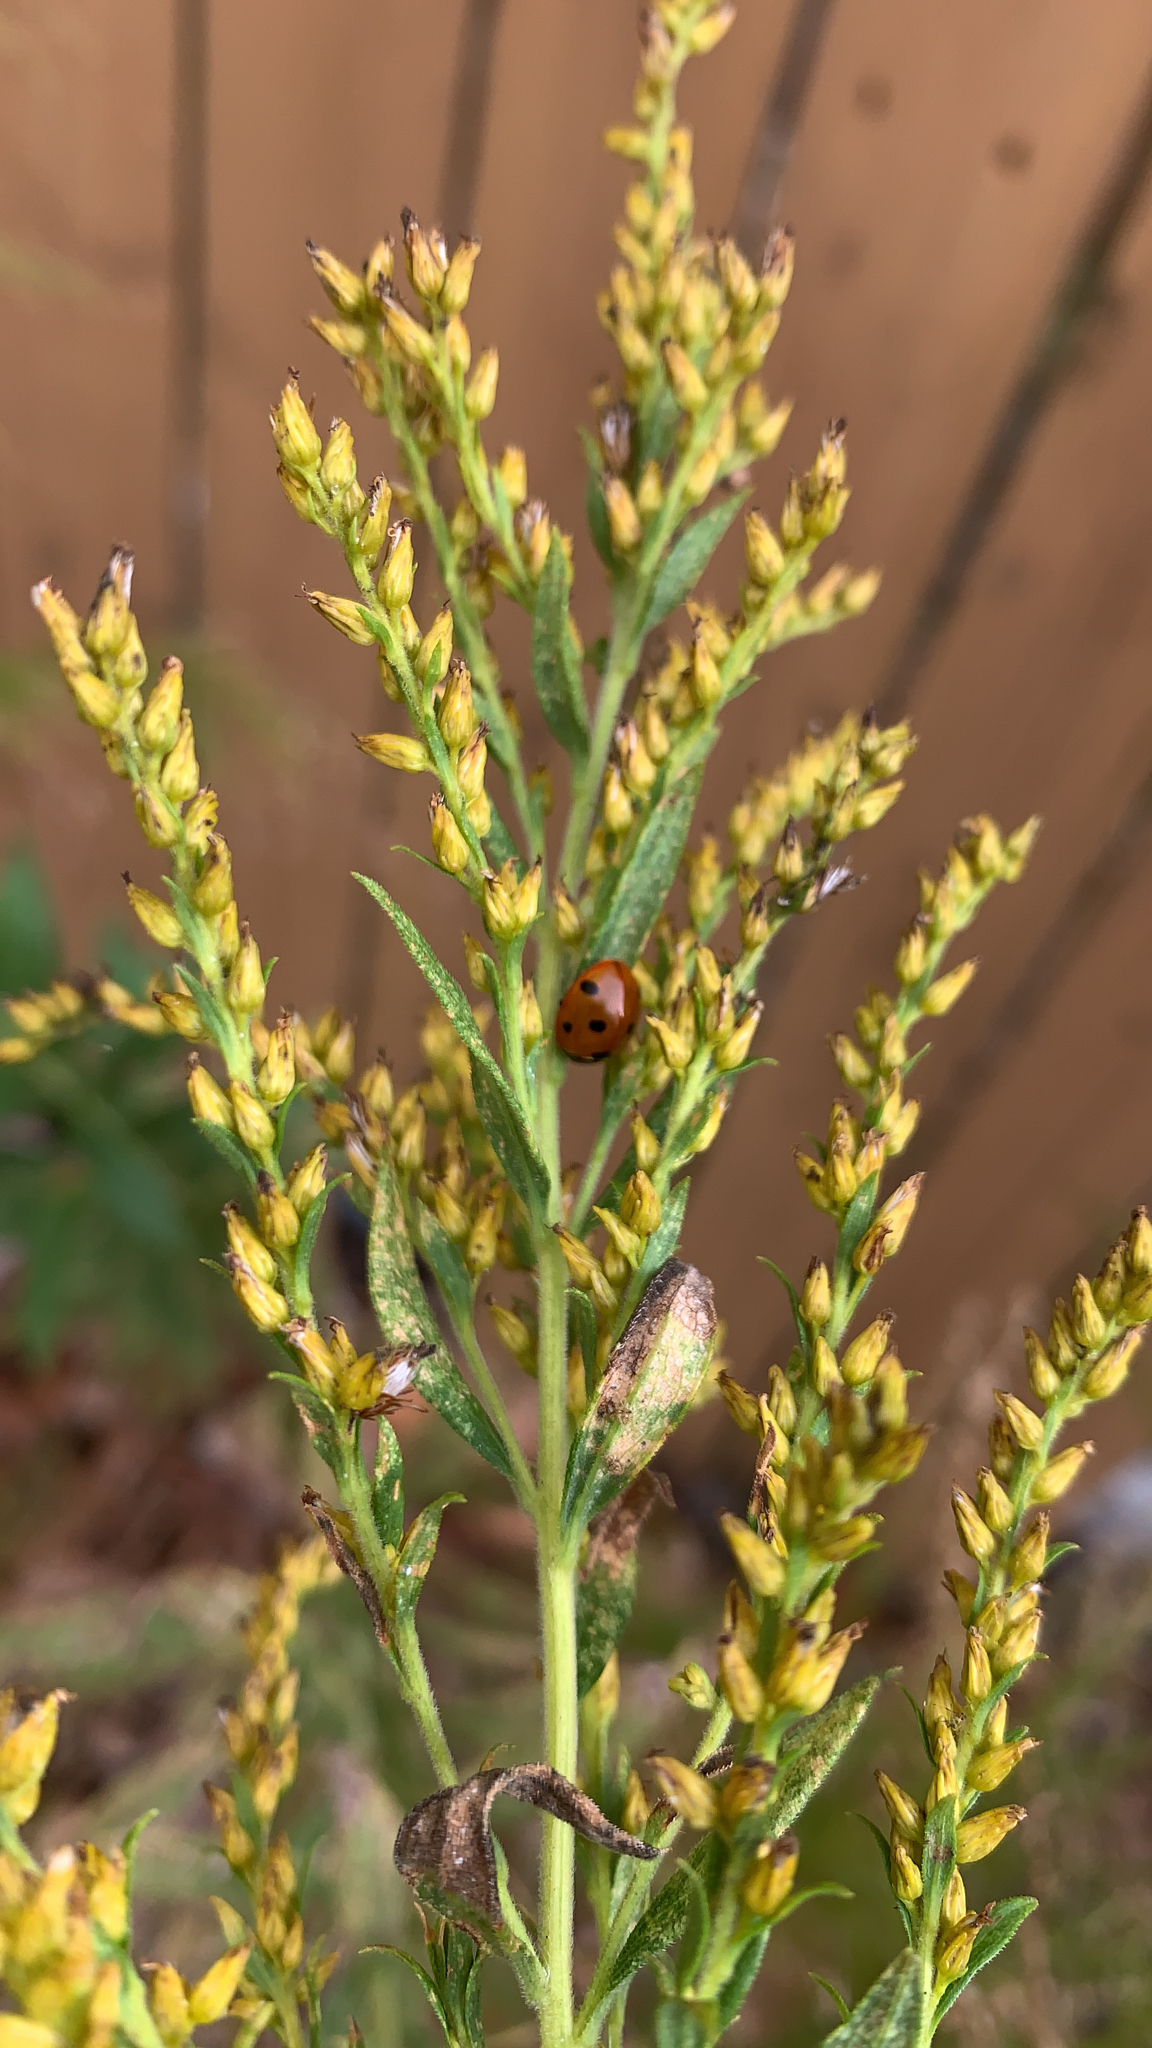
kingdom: Animalia
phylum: Arthropoda
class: Insecta
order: Coleoptera
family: Coccinellidae
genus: Coccinella
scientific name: Coccinella septempunctata
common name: Sevenspotted lady beetle
